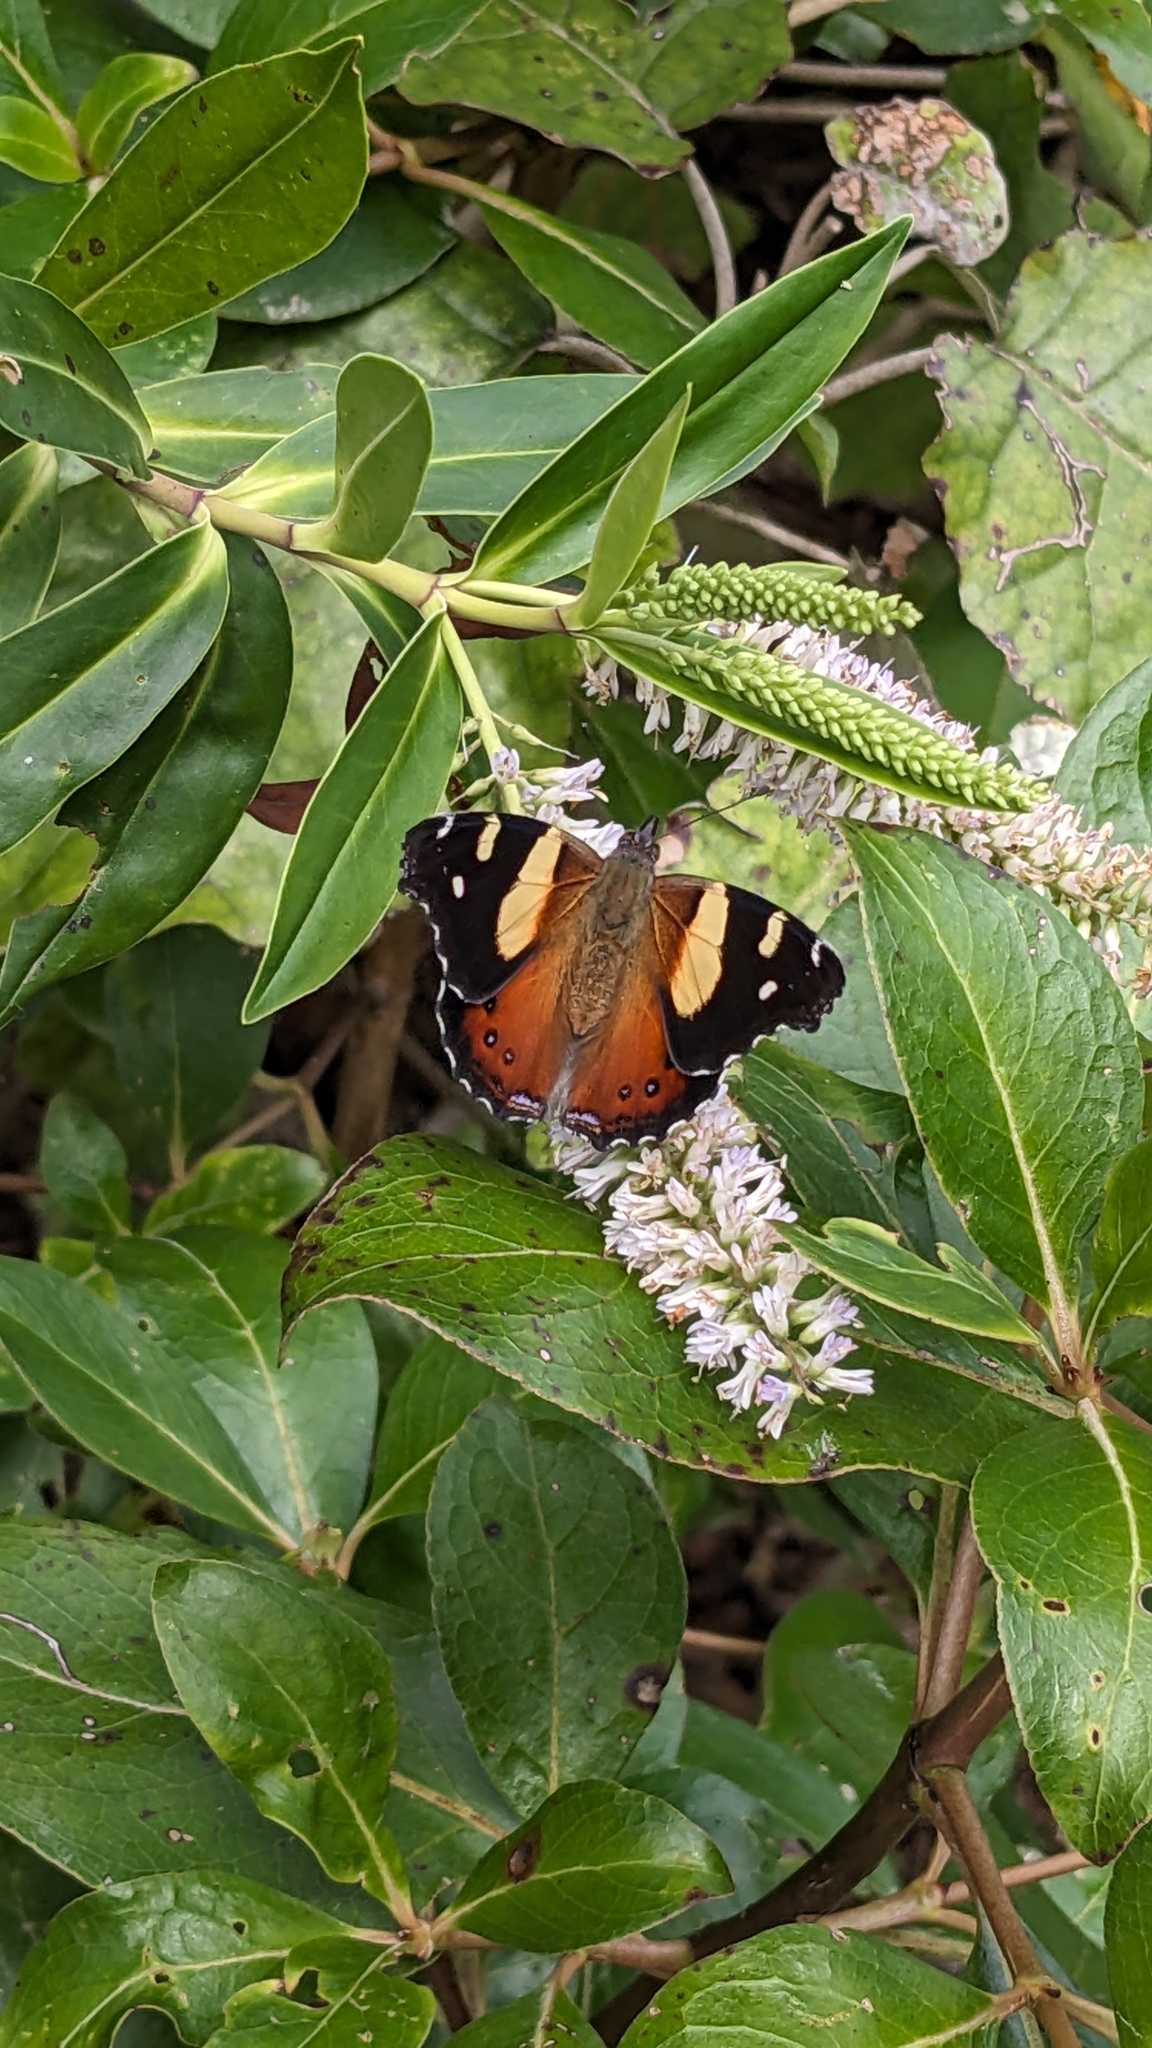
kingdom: Animalia
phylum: Arthropoda
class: Insecta
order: Lepidoptera
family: Nymphalidae
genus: Vanessa
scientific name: Vanessa itea
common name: Yellow admiral
